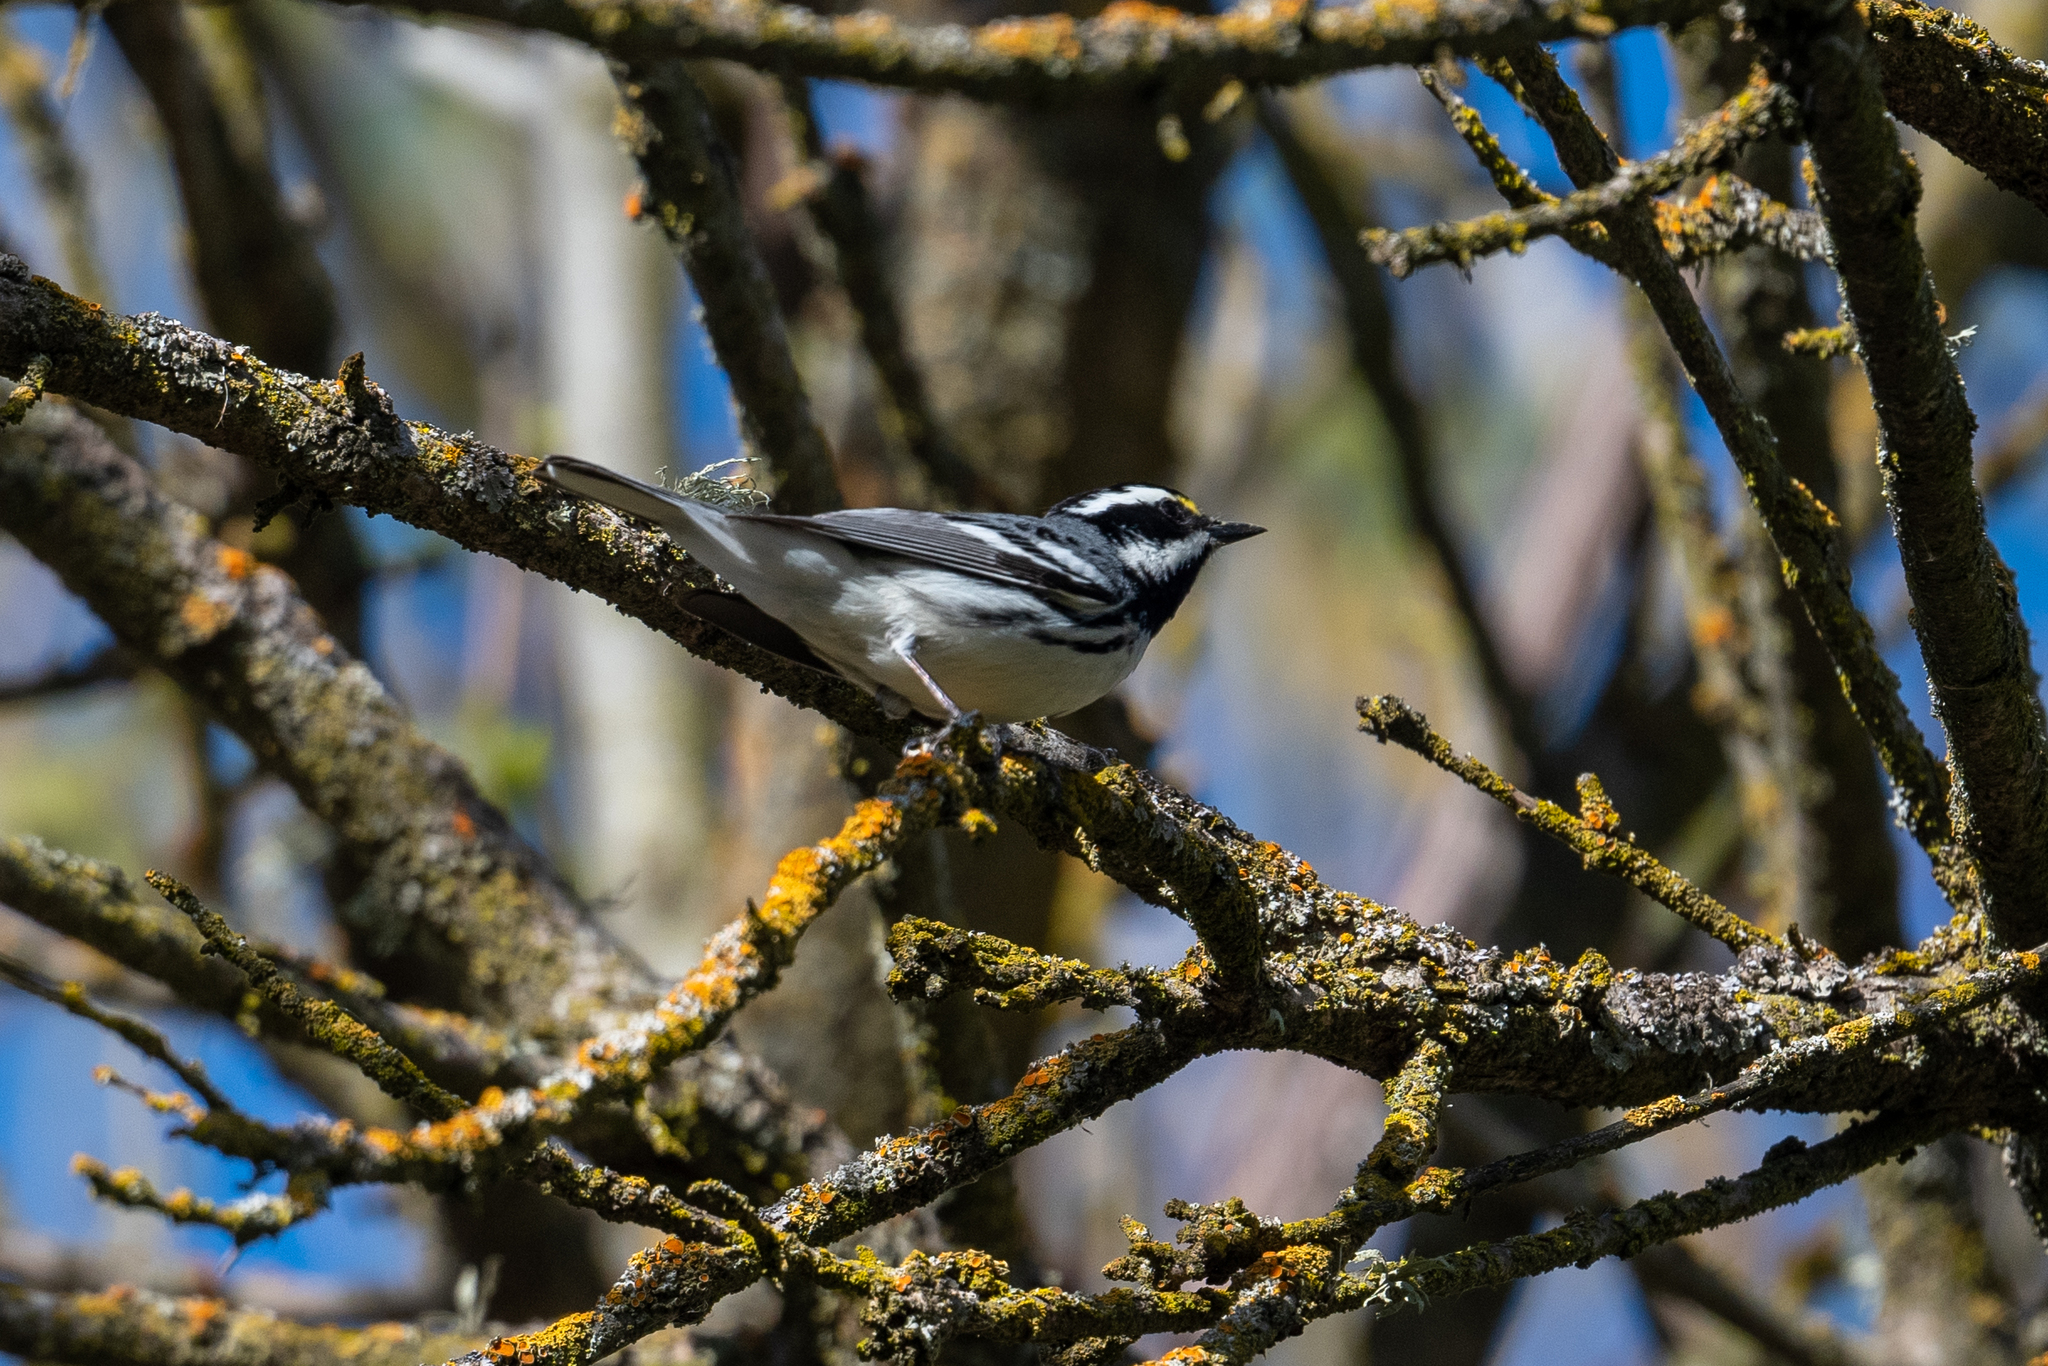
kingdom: Animalia
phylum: Chordata
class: Aves
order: Passeriformes
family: Parulidae
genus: Setophaga
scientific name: Setophaga nigrescens
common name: Black-throated gray warbler
